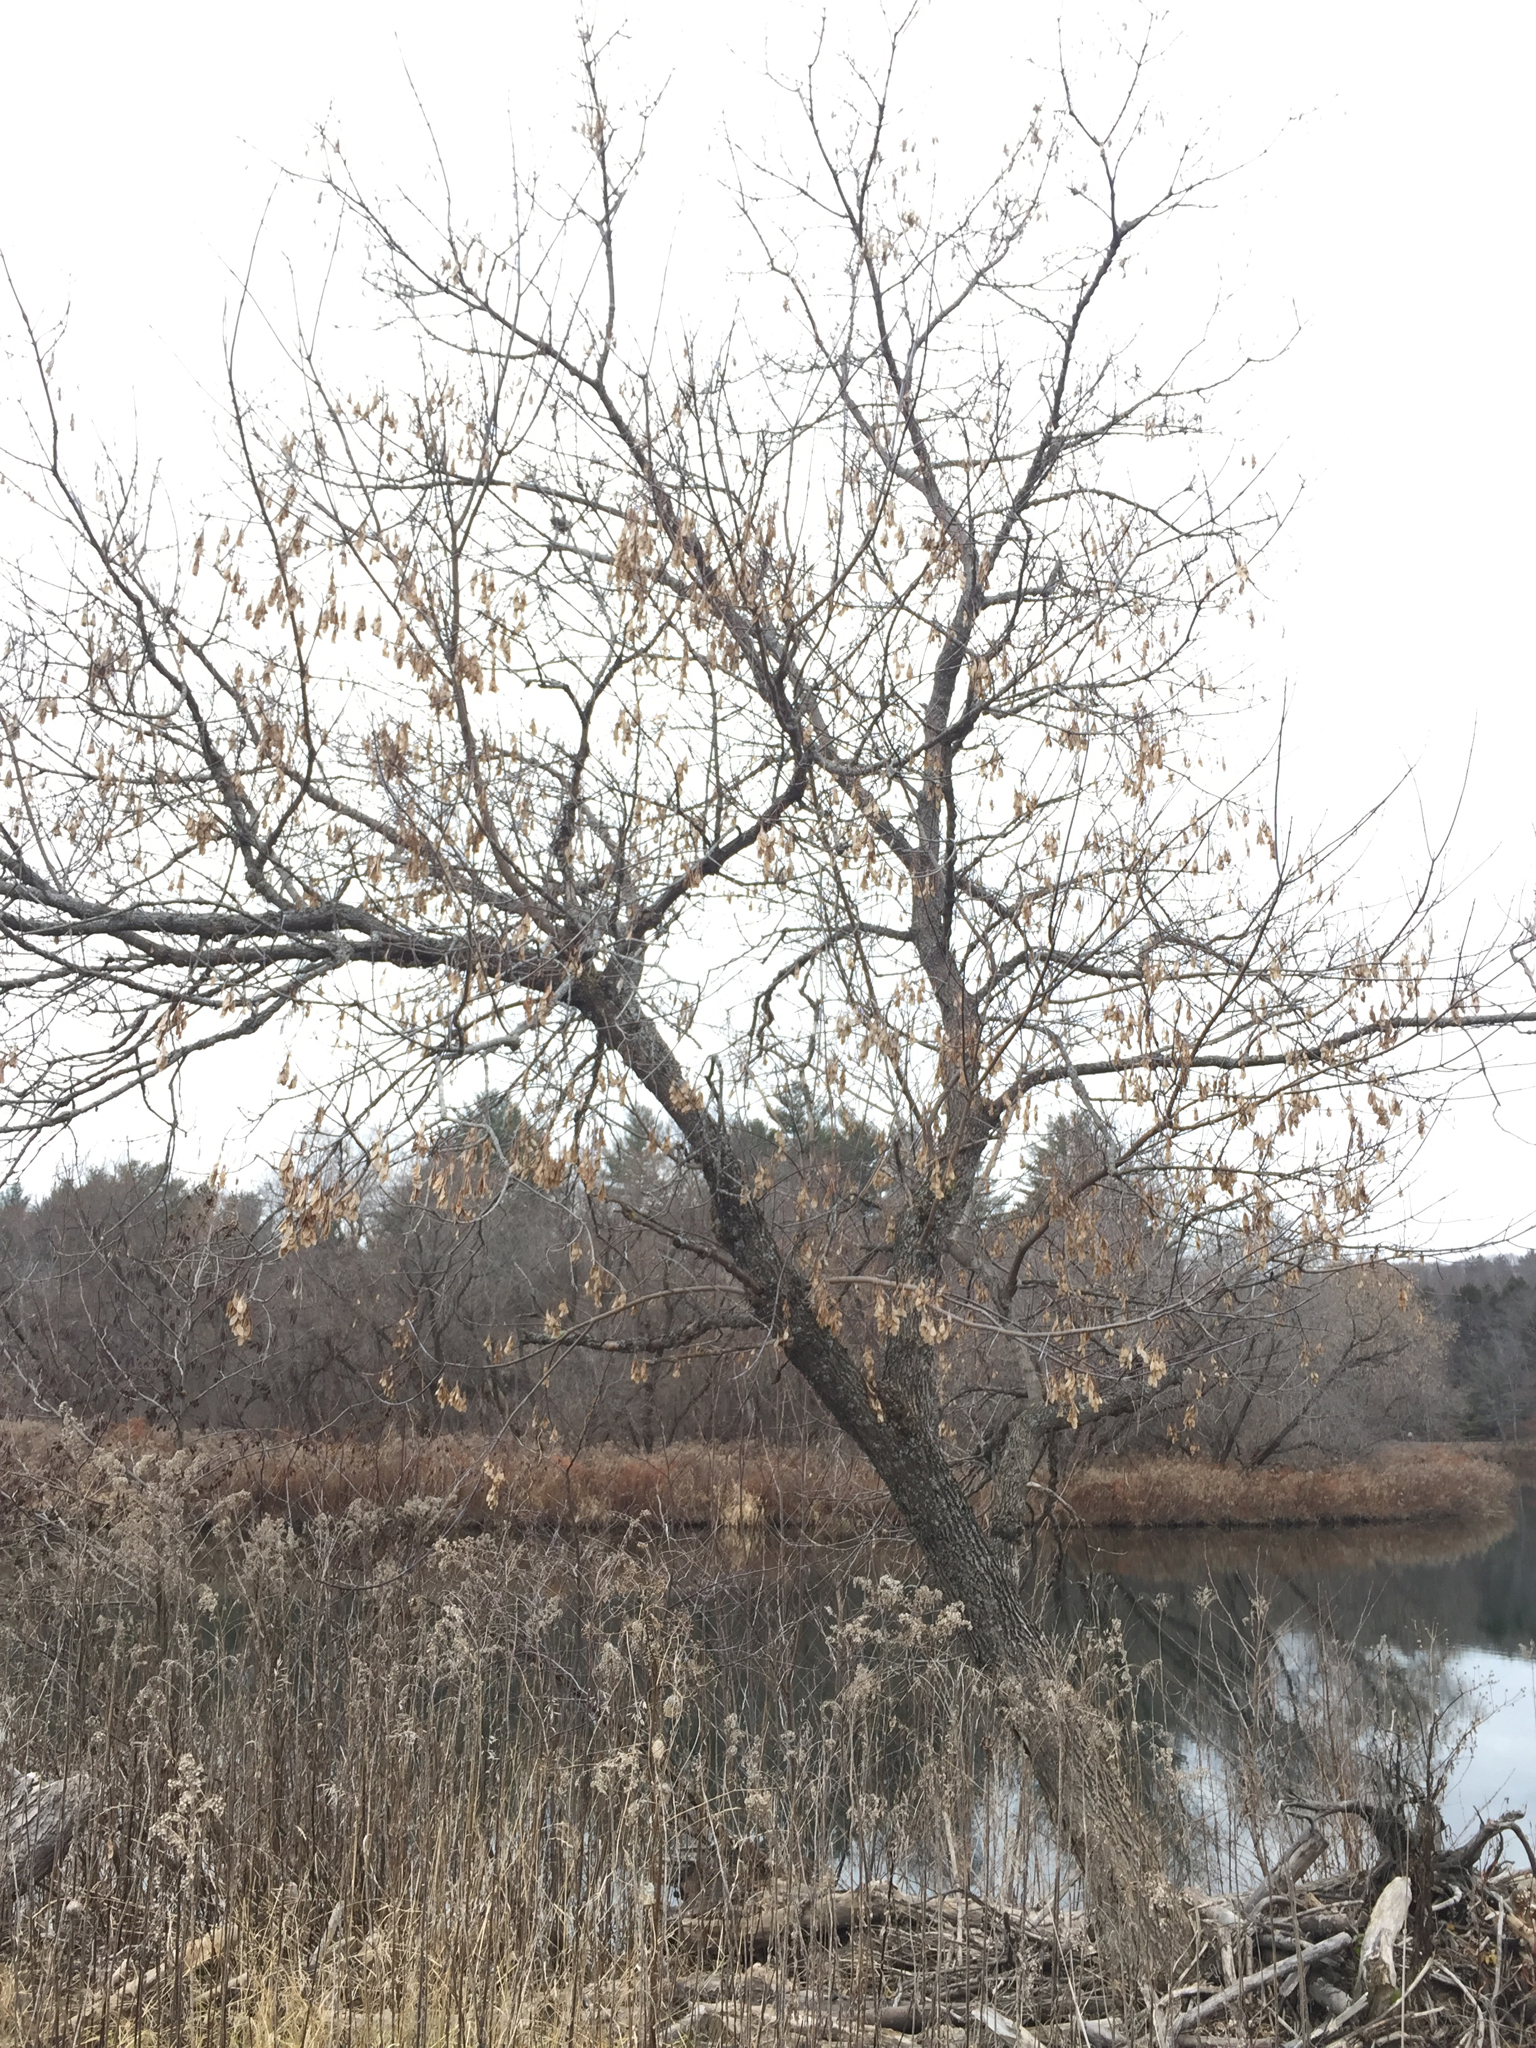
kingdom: Plantae
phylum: Tracheophyta
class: Magnoliopsida
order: Sapindales
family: Sapindaceae
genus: Acer
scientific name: Acer negundo
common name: Ashleaf maple
